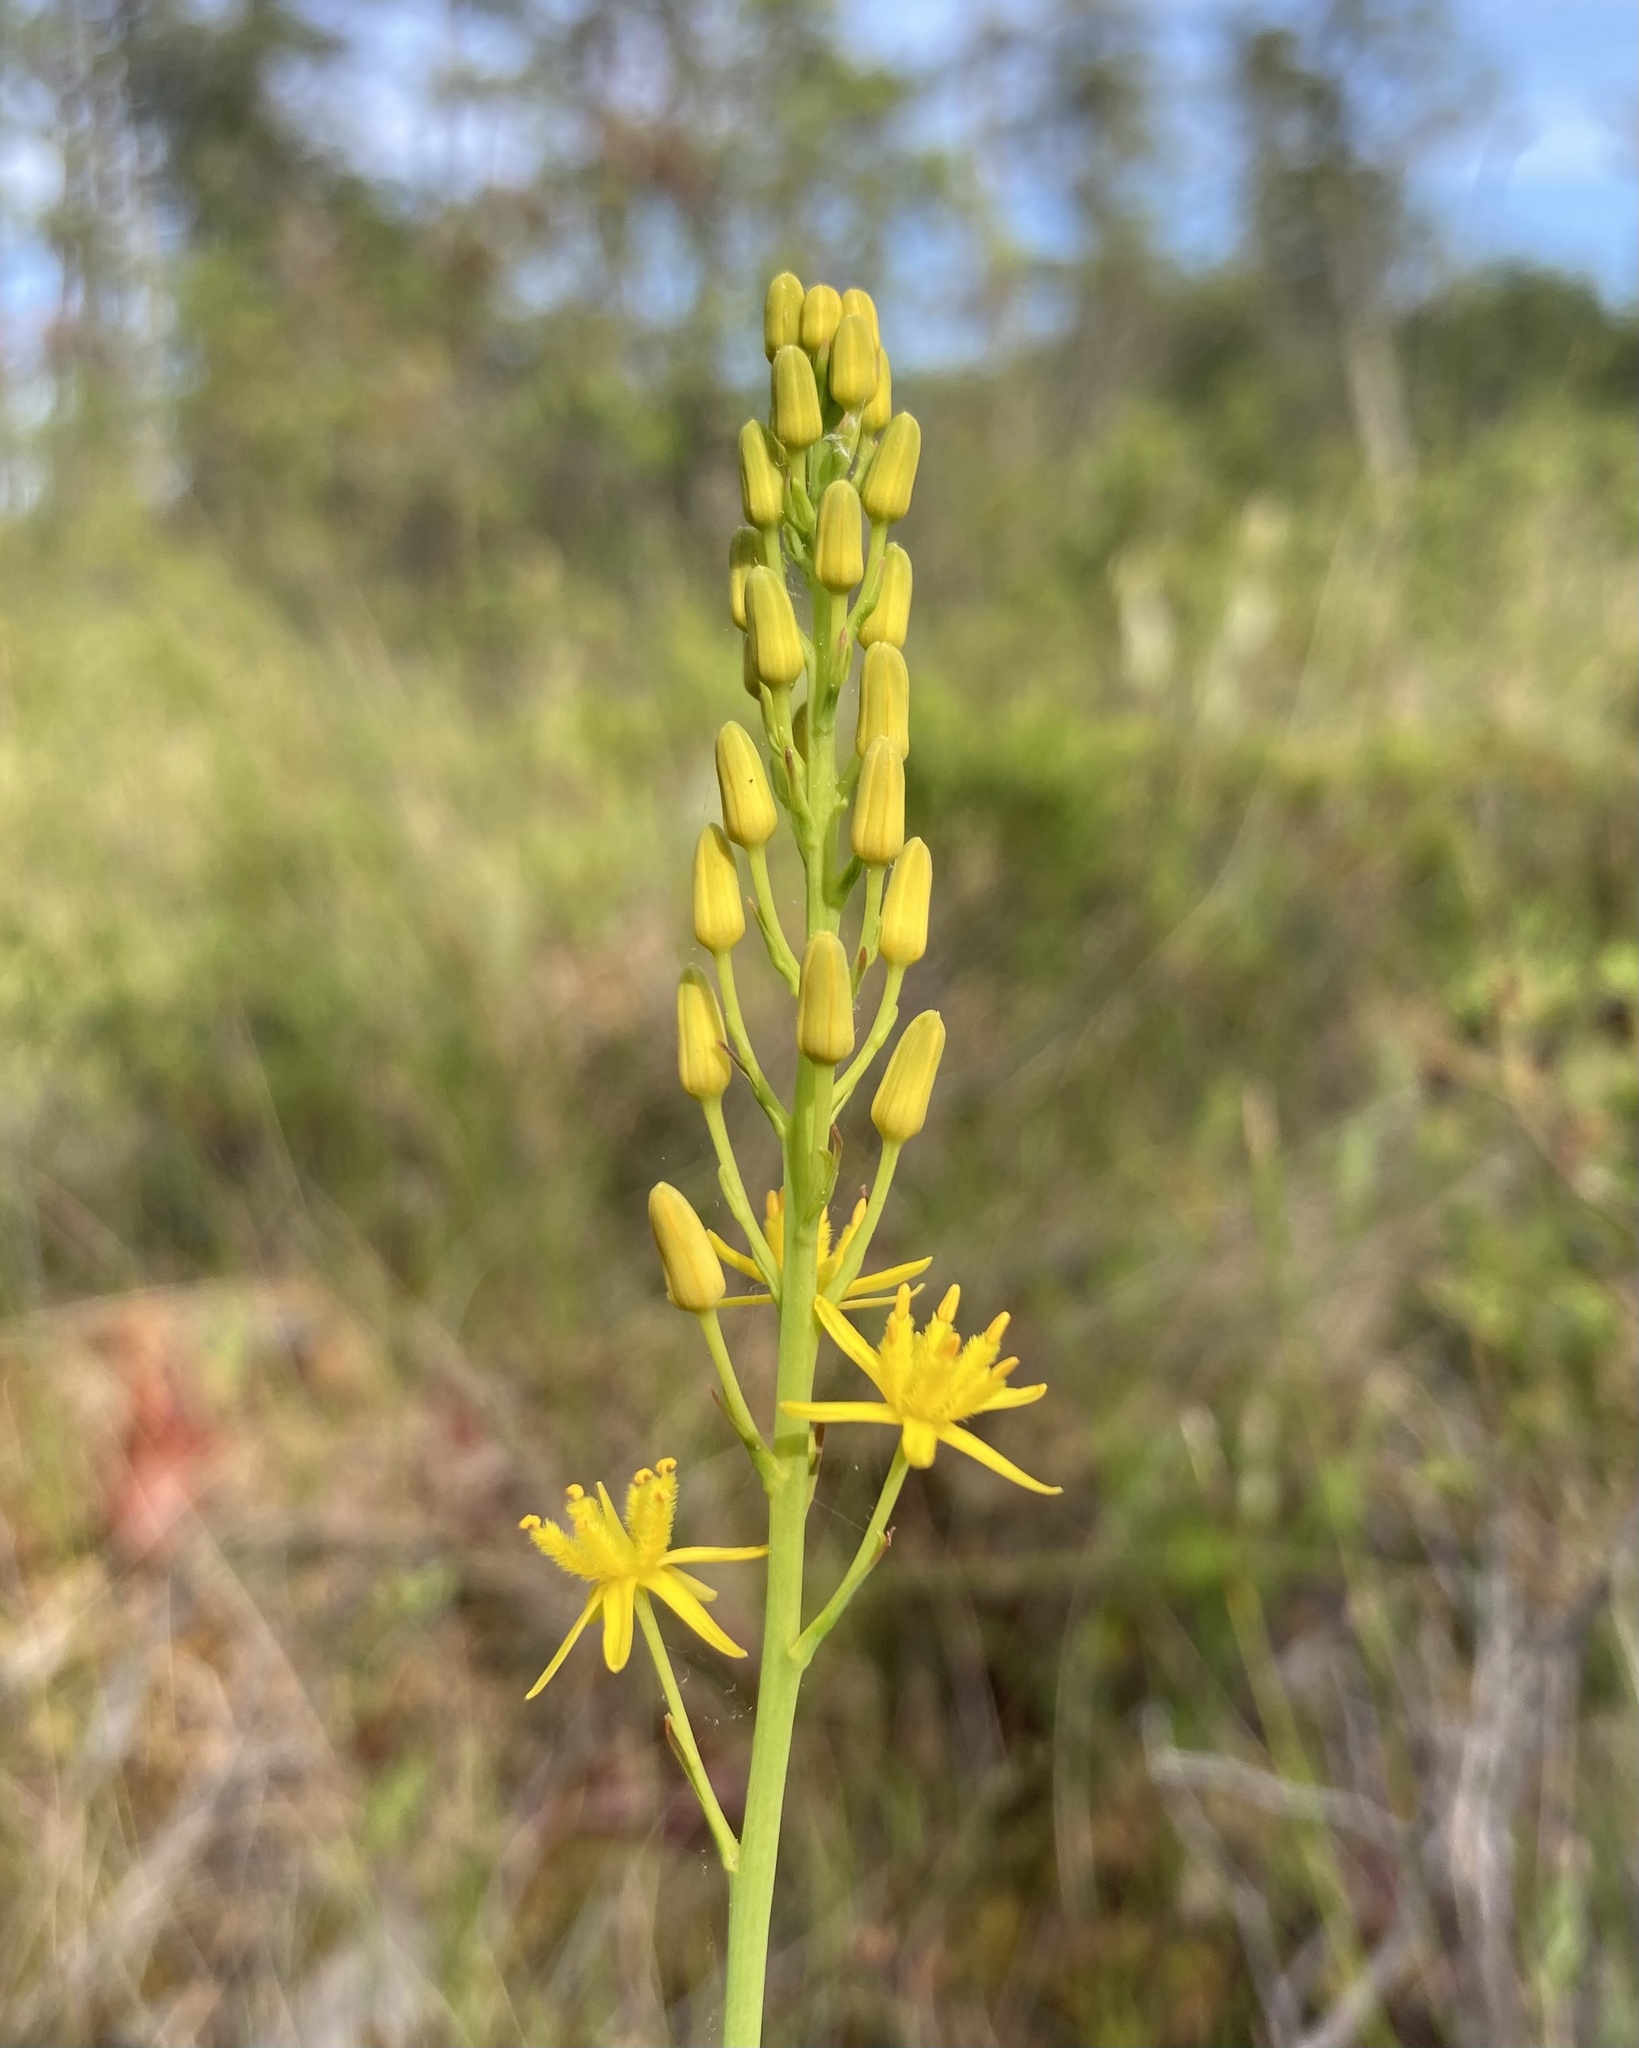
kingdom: Plantae
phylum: Tracheophyta
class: Liliopsida
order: Dioscoreales
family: Nartheciaceae
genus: Narthecium
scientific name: Narthecium americanum
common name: Bog-asphodel
